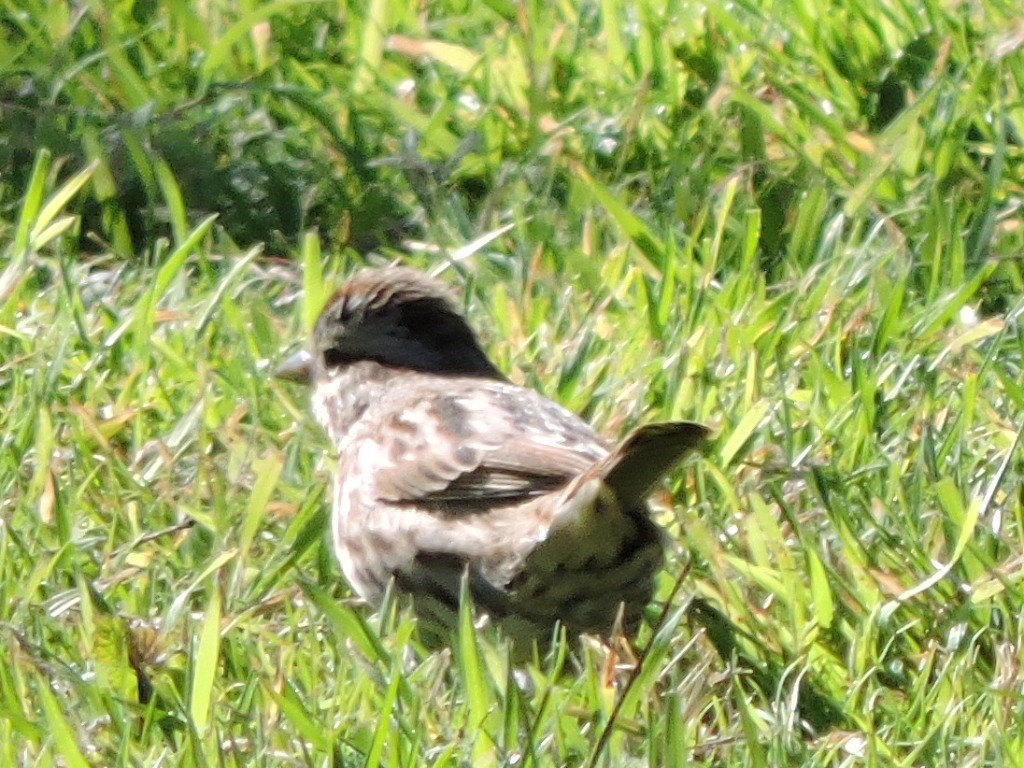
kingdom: Animalia
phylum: Chordata
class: Aves
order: Passeriformes
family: Passerellidae
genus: Melospiza
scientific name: Melospiza melodia
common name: Song sparrow
